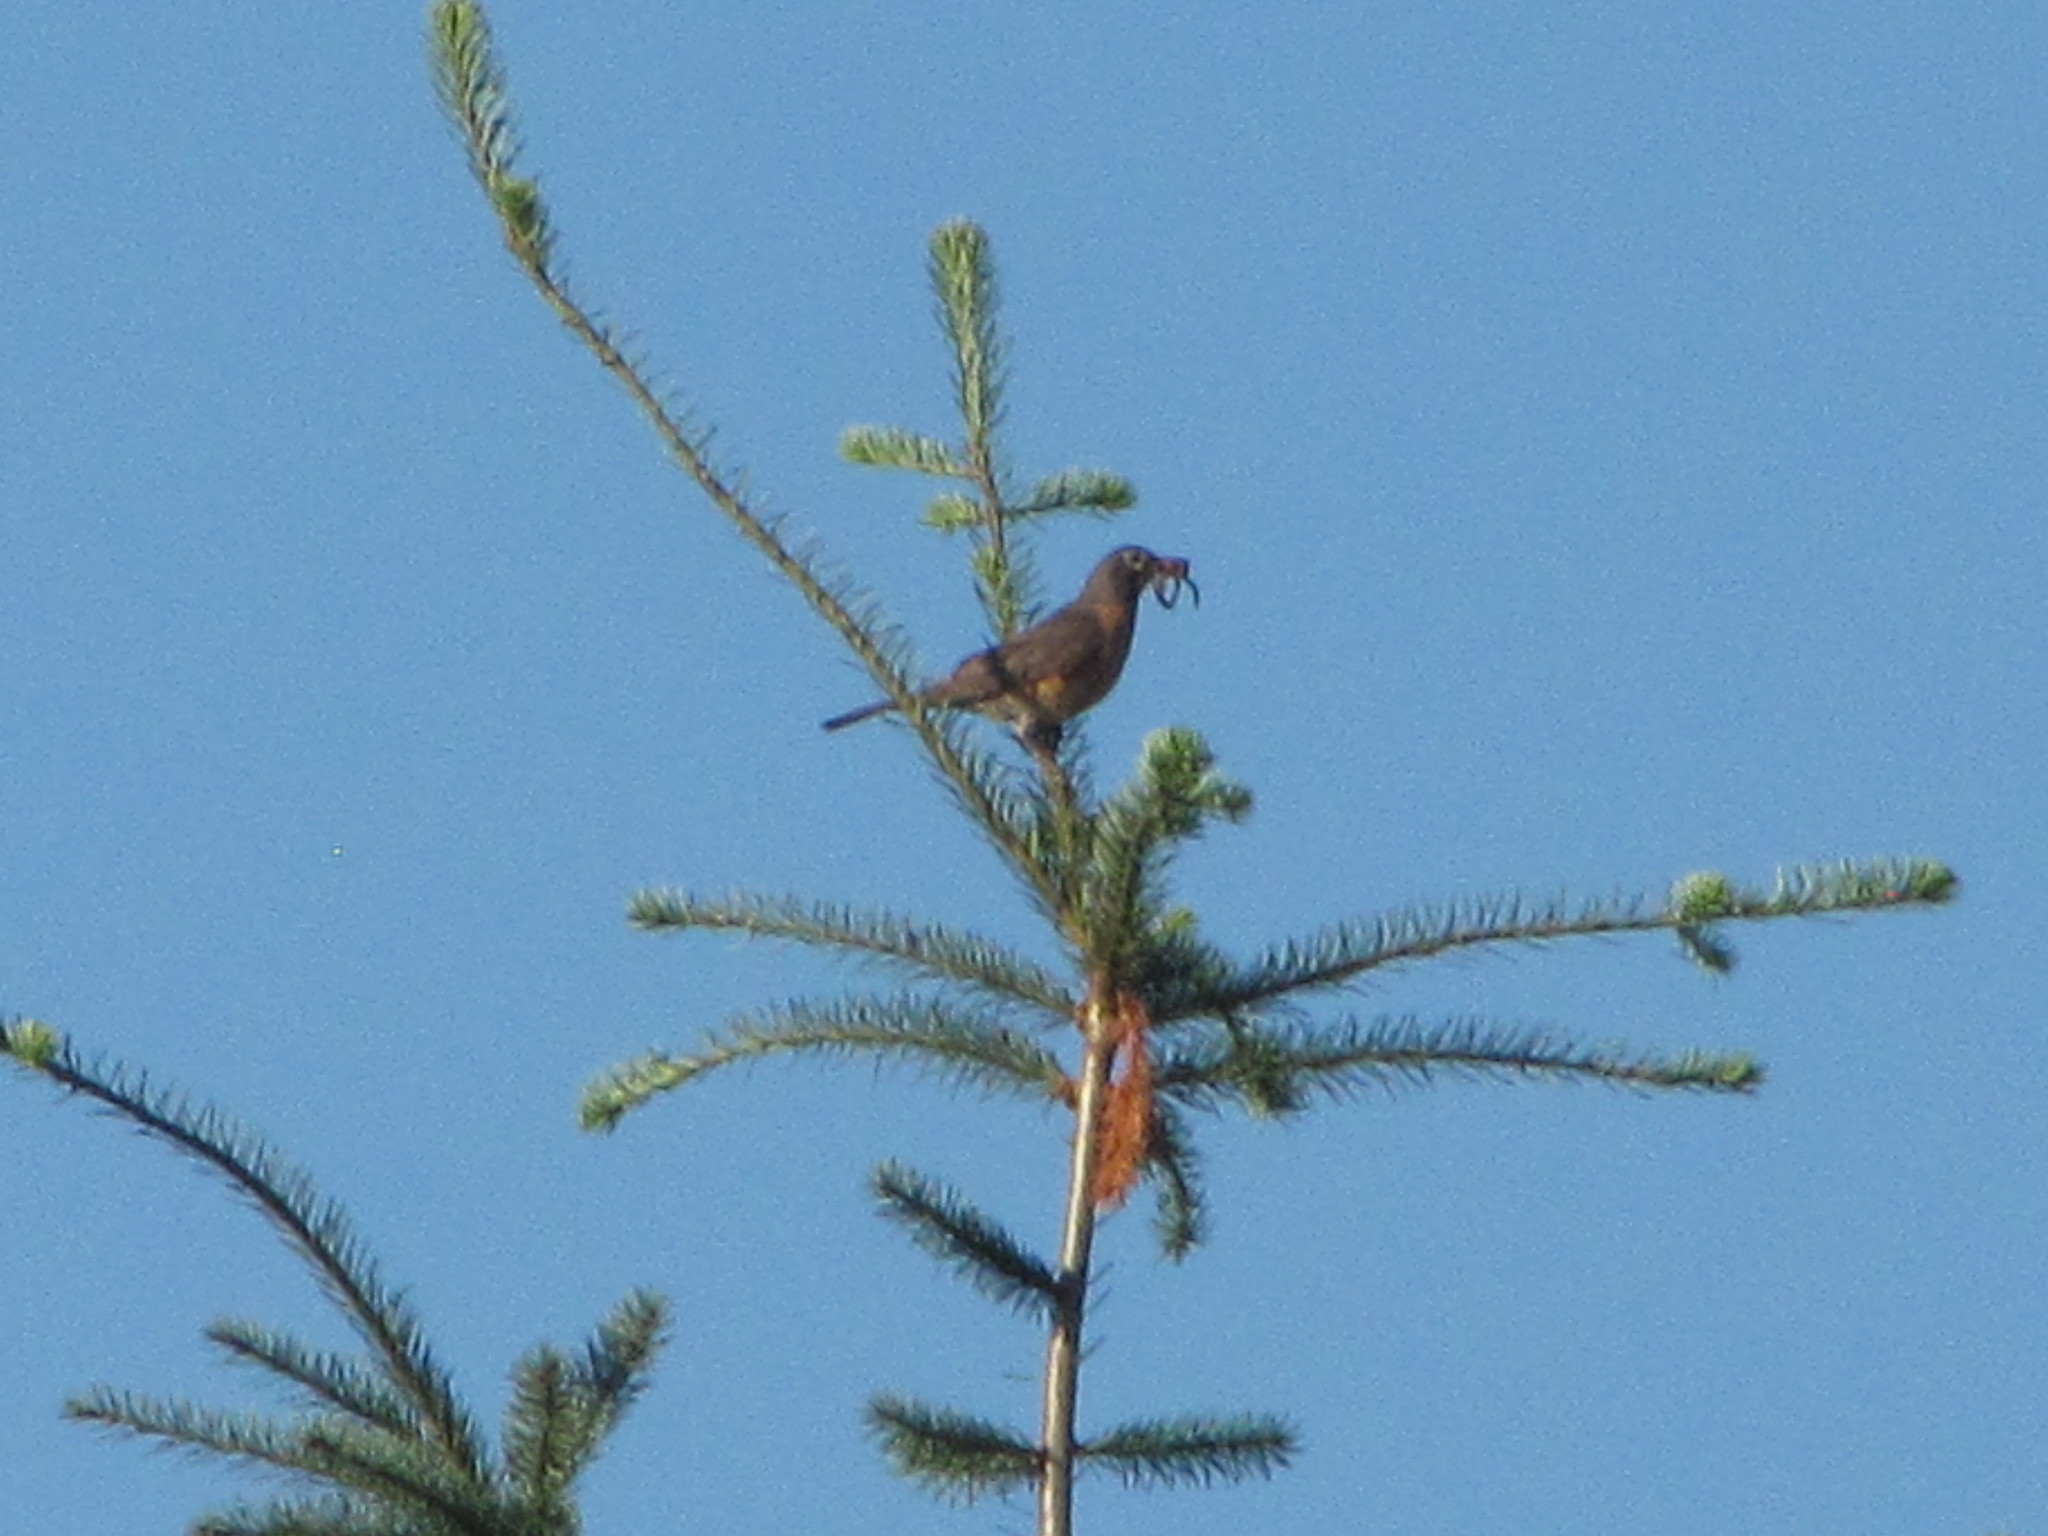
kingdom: Animalia
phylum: Chordata
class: Aves
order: Passeriformes
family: Turdidae
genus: Turdus
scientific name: Turdus migratorius
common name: American robin
